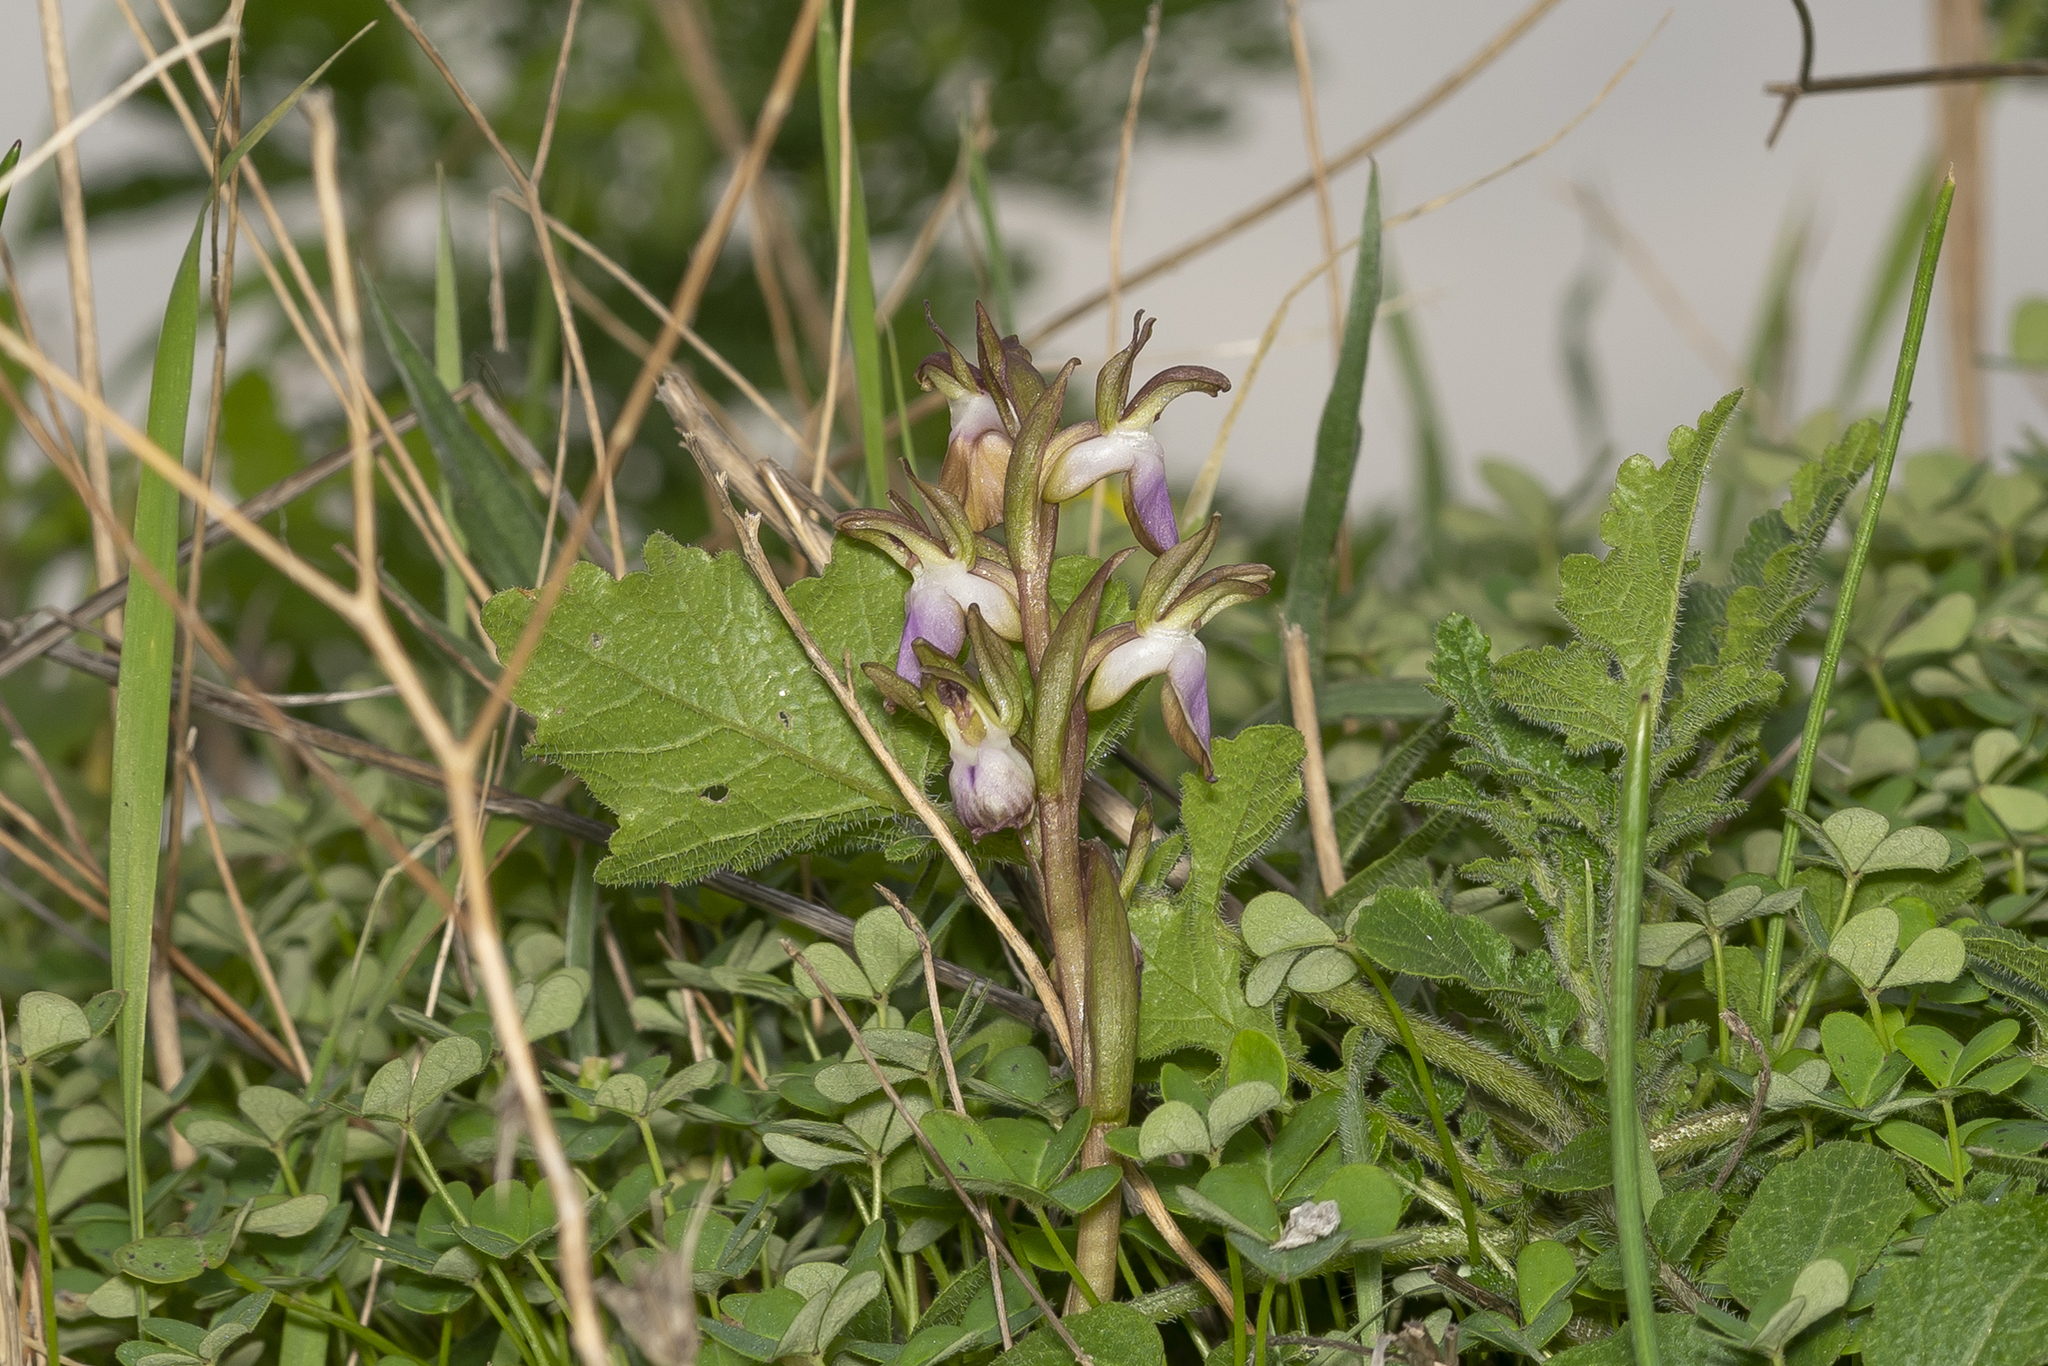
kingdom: Plantae
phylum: Tracheophyta
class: Liliopsida
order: Asparagales
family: Orchidaceae
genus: Anacamptis
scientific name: Anacamptis collina
